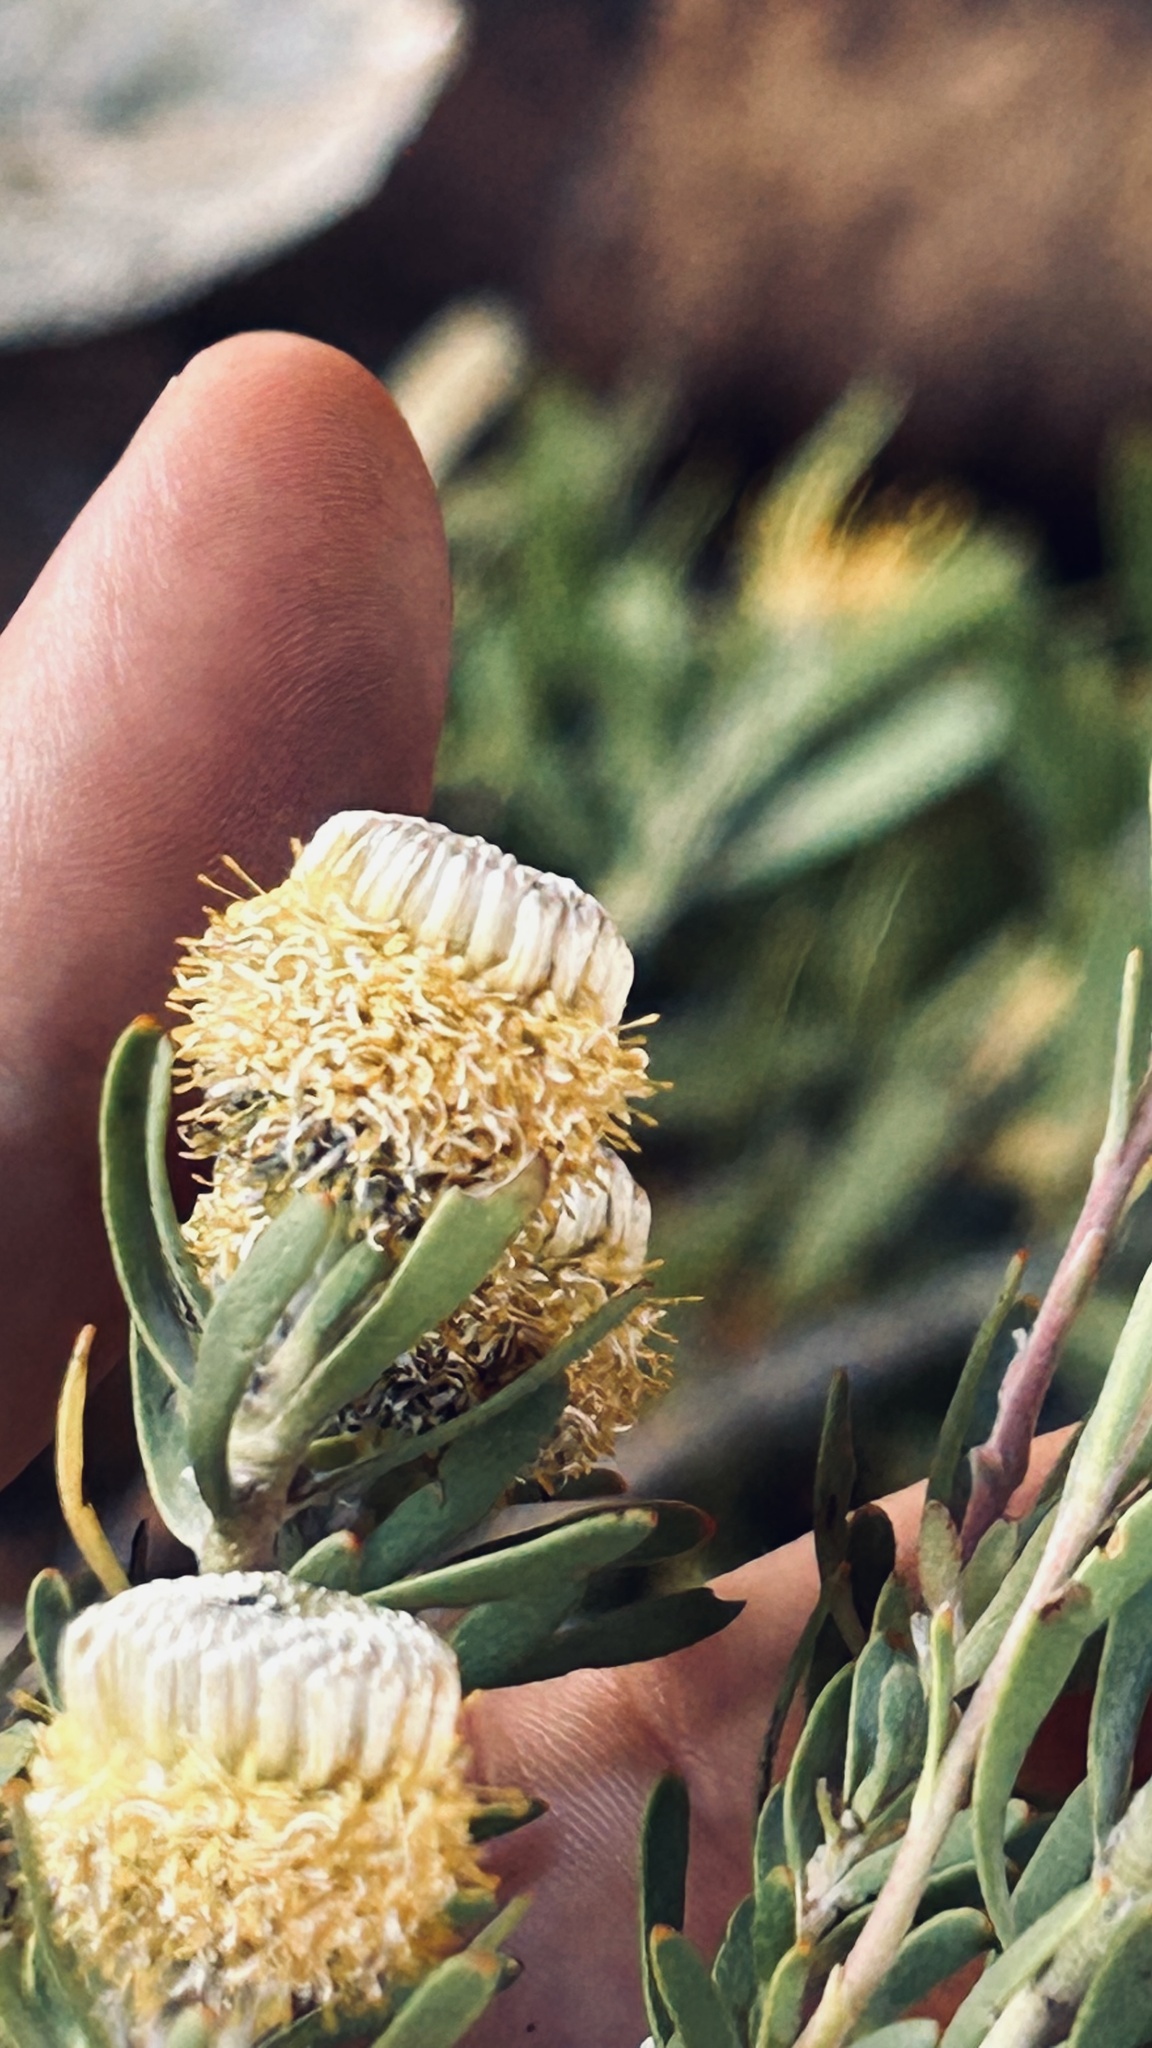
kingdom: Plantae
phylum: Tracheophyta
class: Magnoliopsida
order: Proteales
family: Proteaceae
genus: Leucadendron
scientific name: Leucadendron galpinii
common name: Hairless conebush
